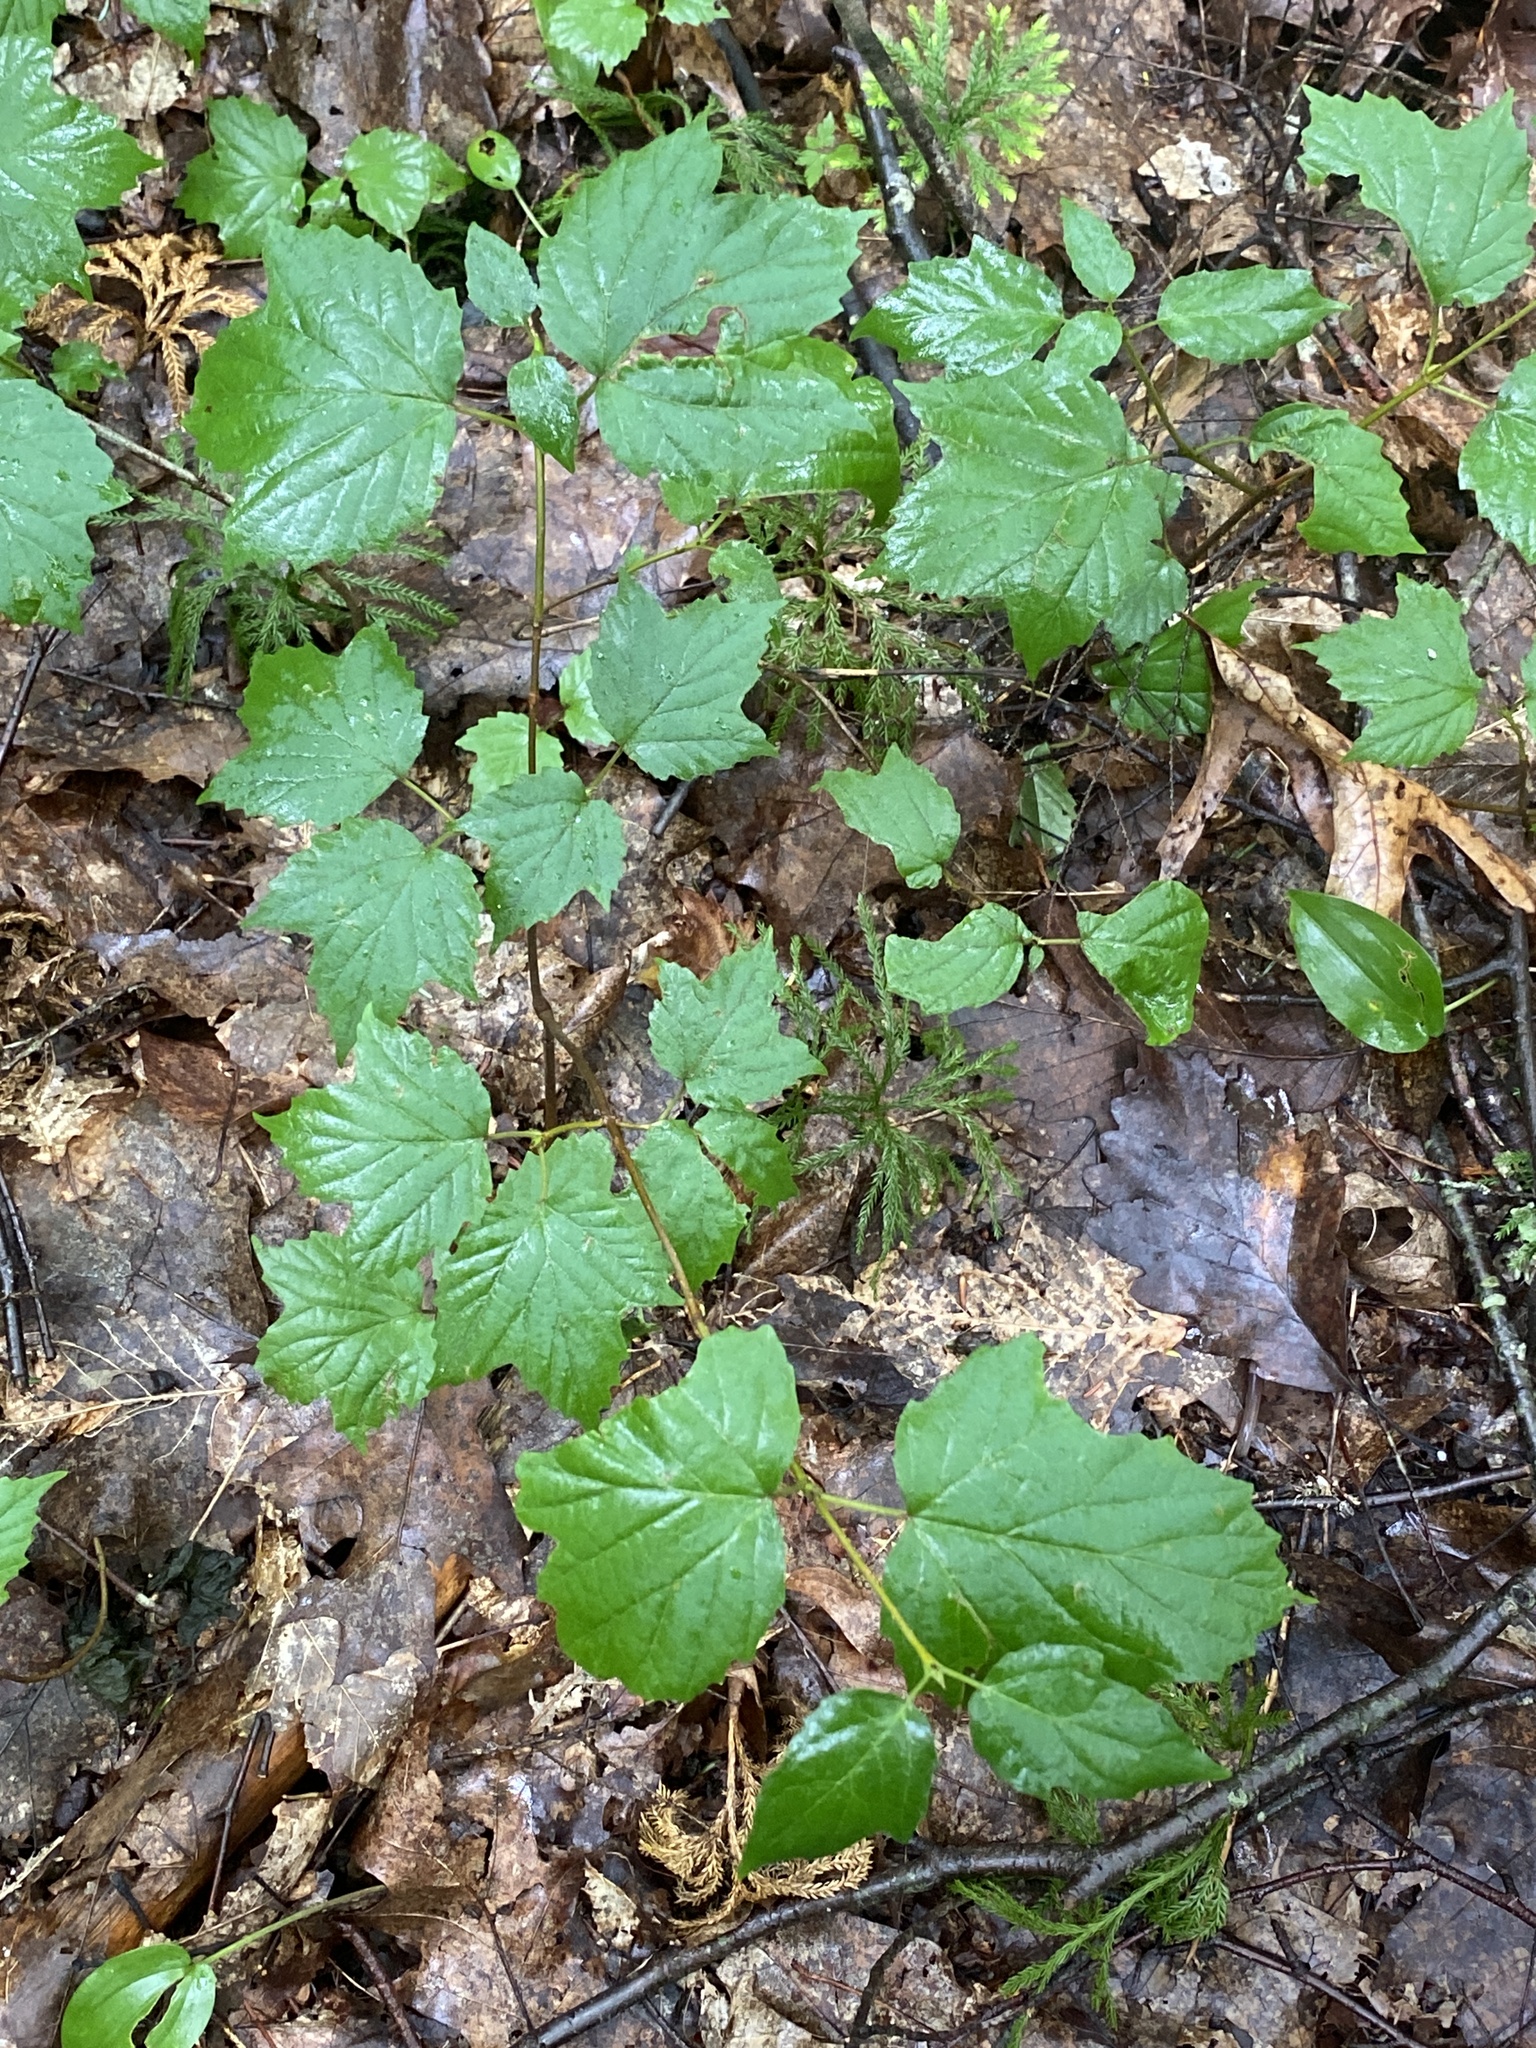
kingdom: Plantae
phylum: Tracheophyta
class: Magnoliopsida
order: Dipsacales
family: Viburnaceae
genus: Viburnum
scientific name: Viburnum acerifolium
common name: Dockmackie
